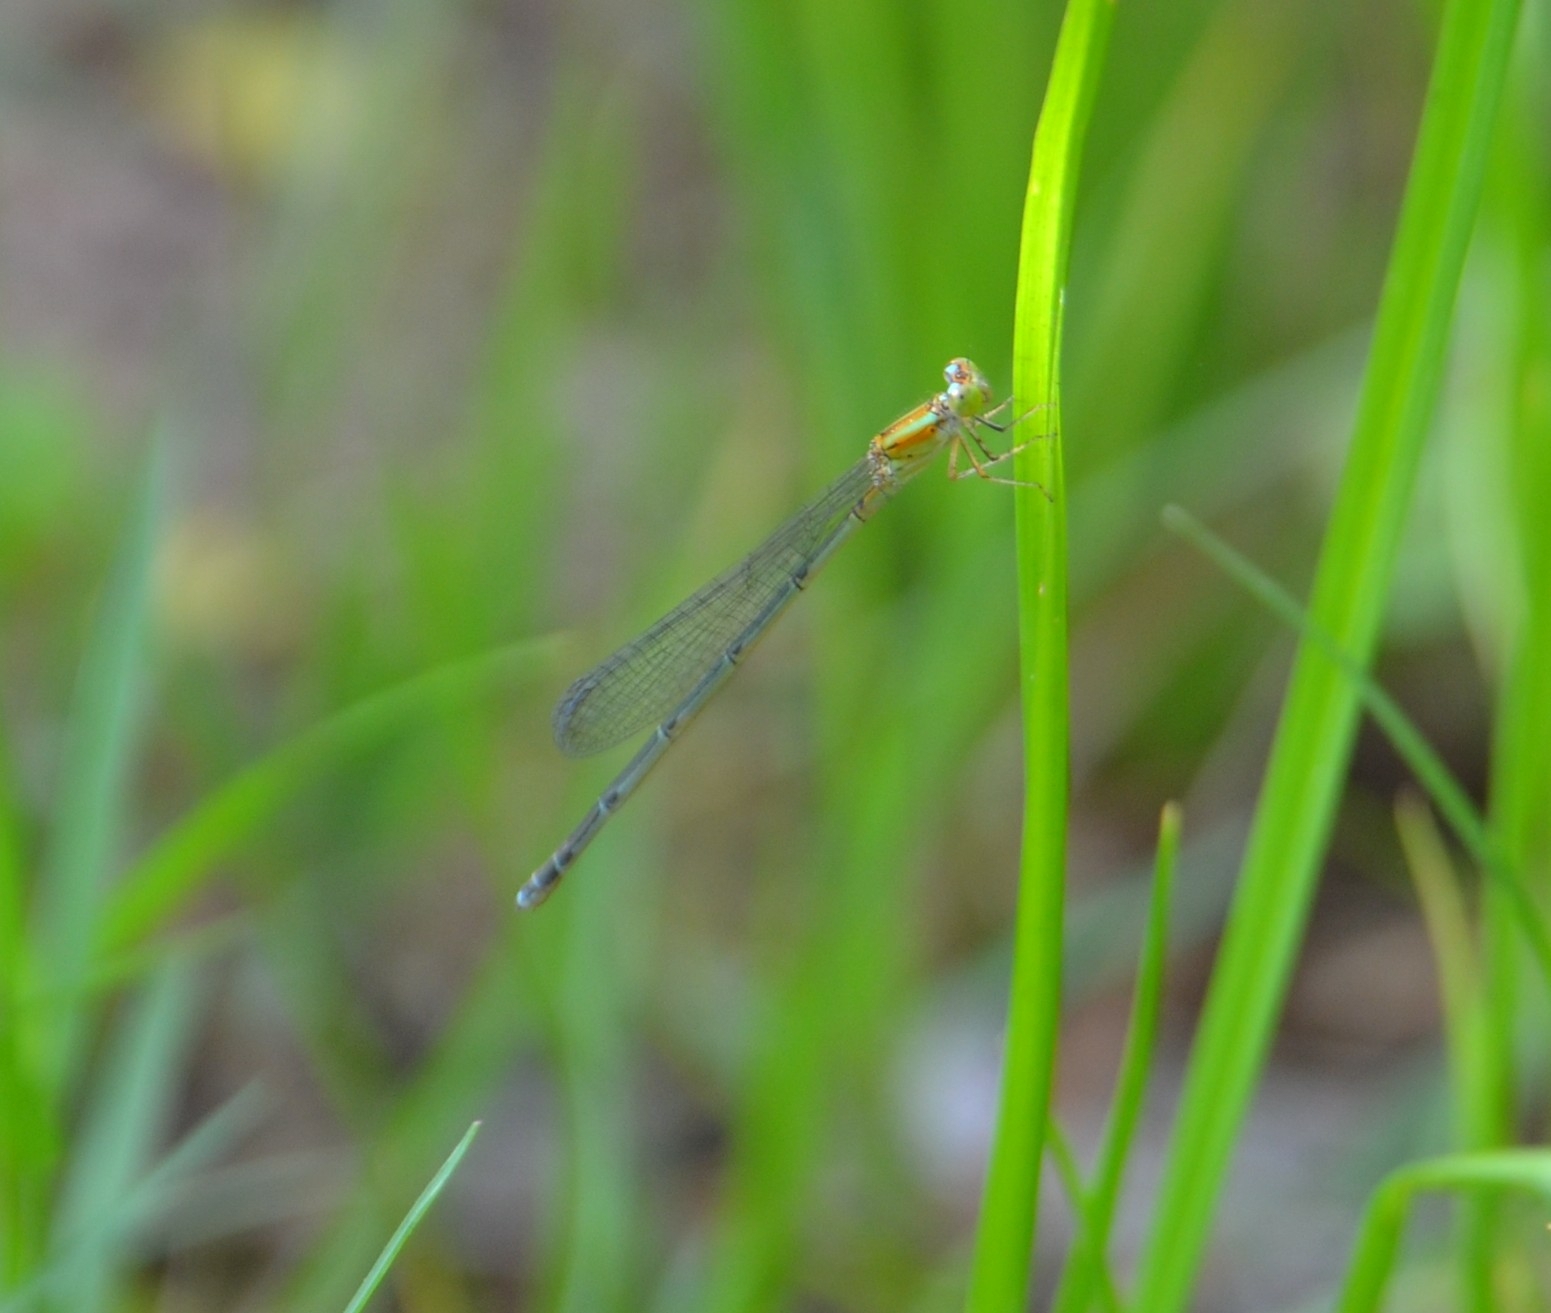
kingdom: Animalia
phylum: Arthropoda
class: Insecta
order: Odonata
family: Coenagrionidae
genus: Pseudagrion
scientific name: Pseudagrion microcephalum
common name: Blue riverdamsel
